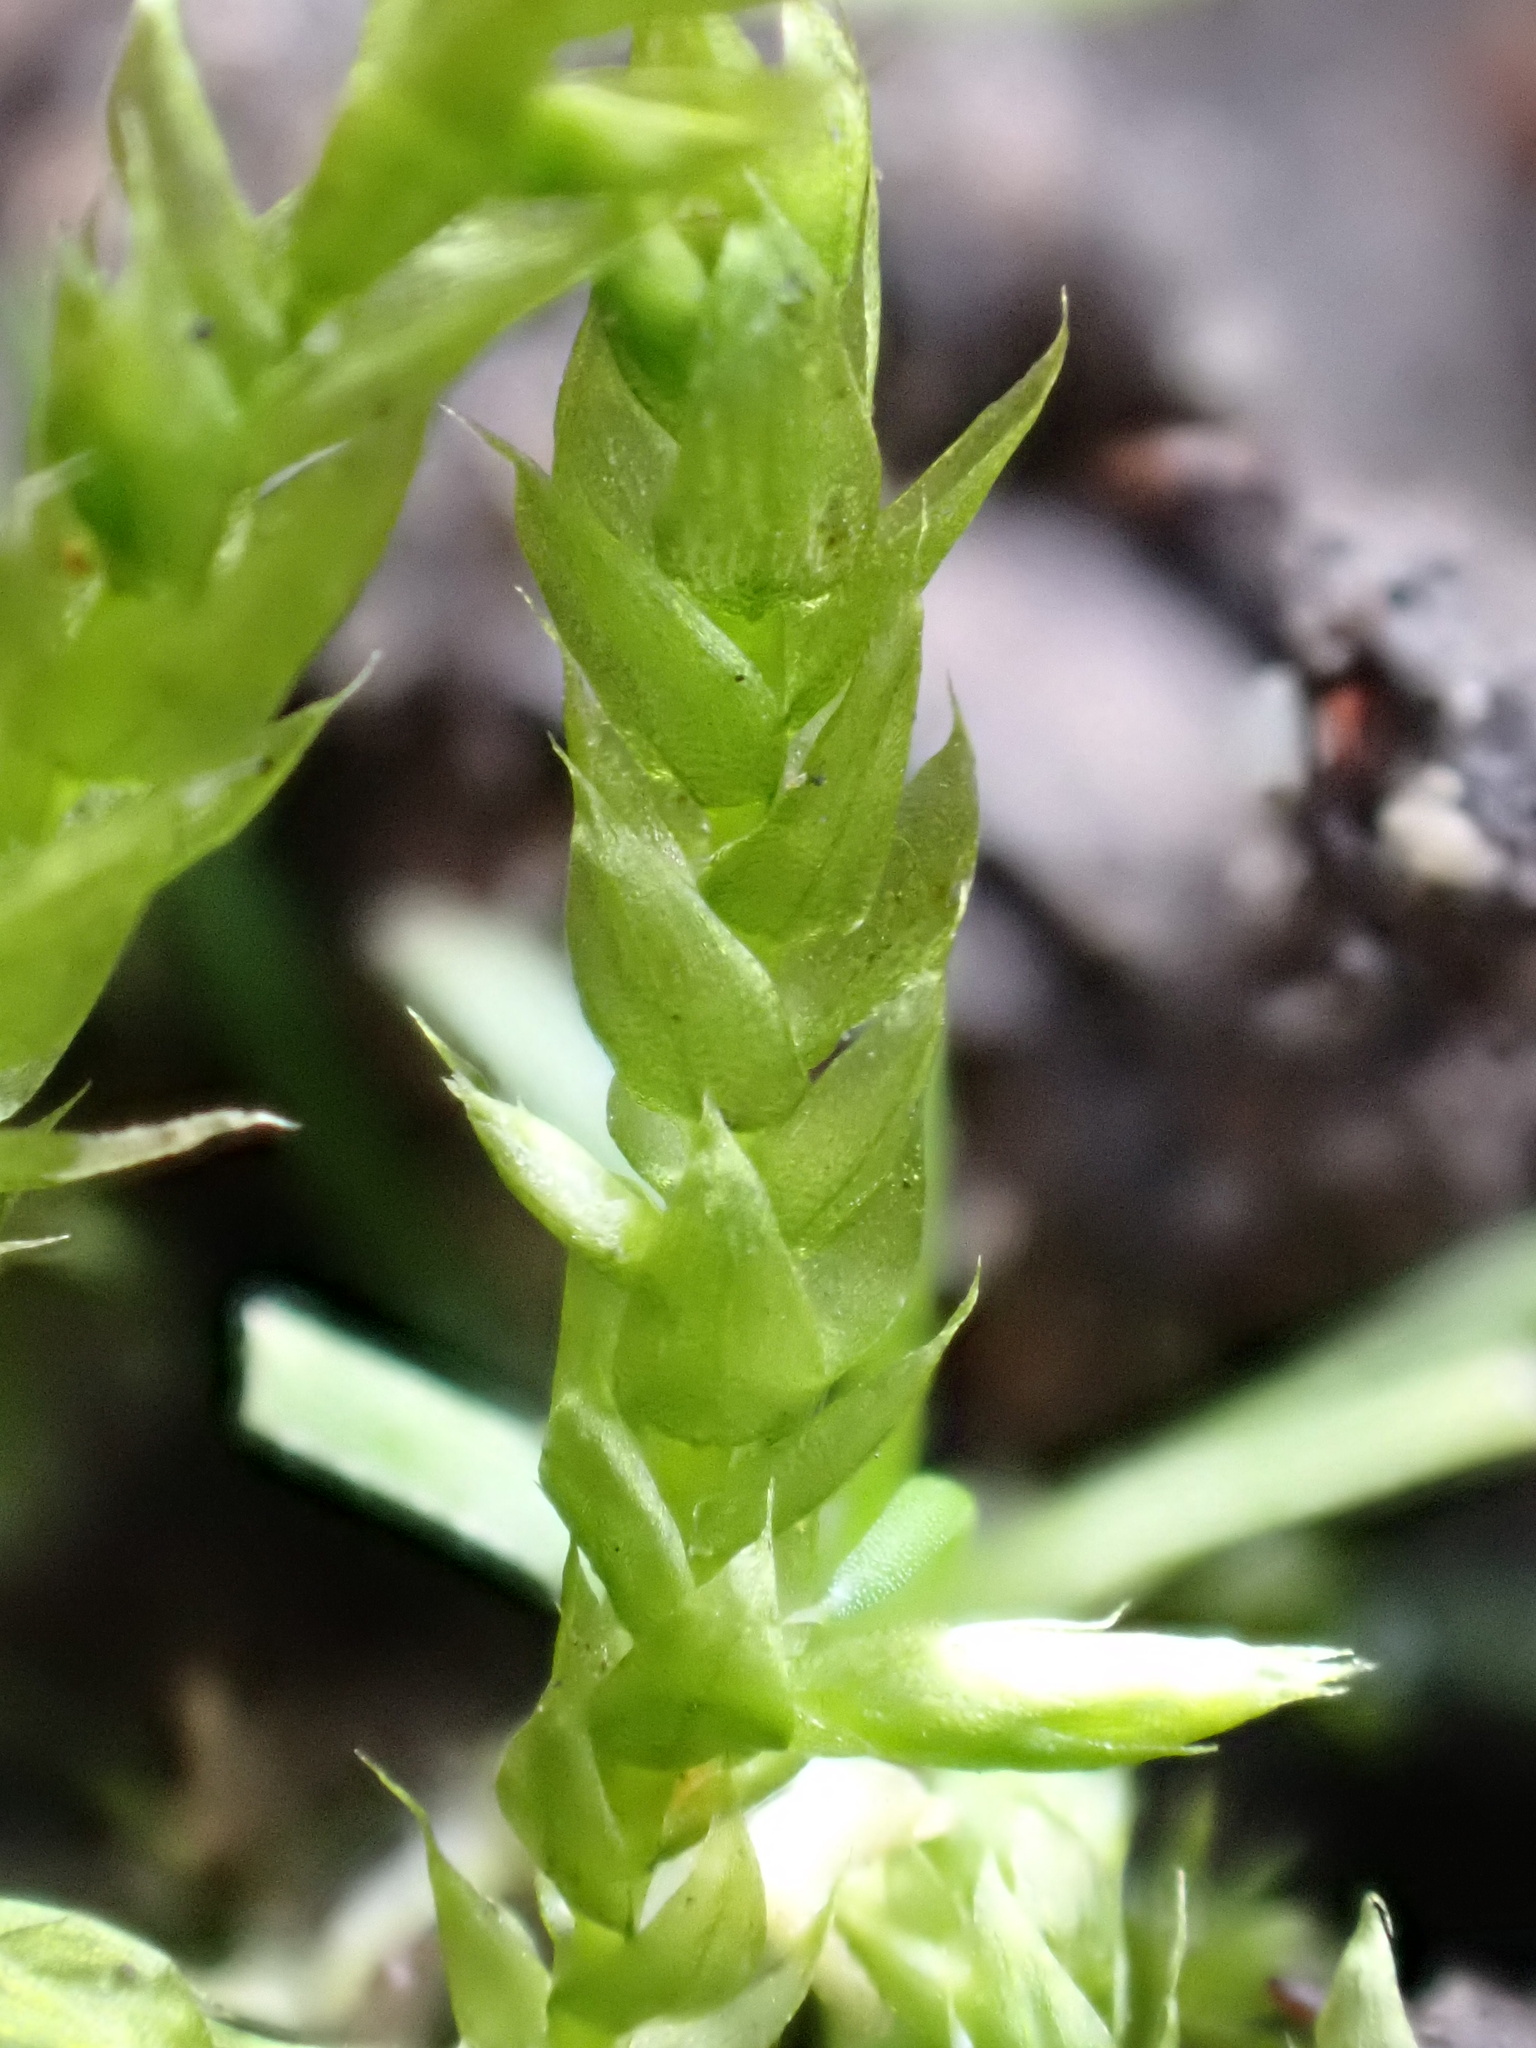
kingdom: Plantae
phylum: Bryophyta
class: Bryopsida
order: Hypnales
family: Brachytheciaceae
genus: Brachythecium
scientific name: Brachythecium rutabulum
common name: Rough-stalked feather-moss
